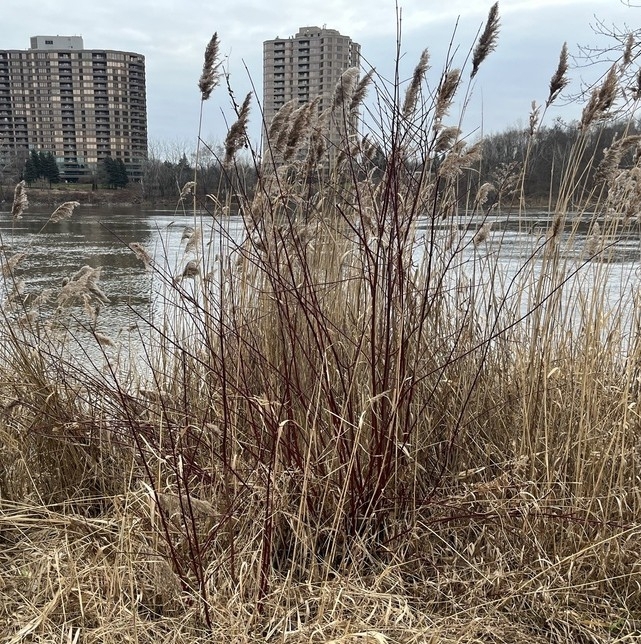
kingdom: Plantae
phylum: Tracheophyta
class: Magnoliopsida
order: Cornales
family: Cornaceae
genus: Cornus
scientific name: Cornus
